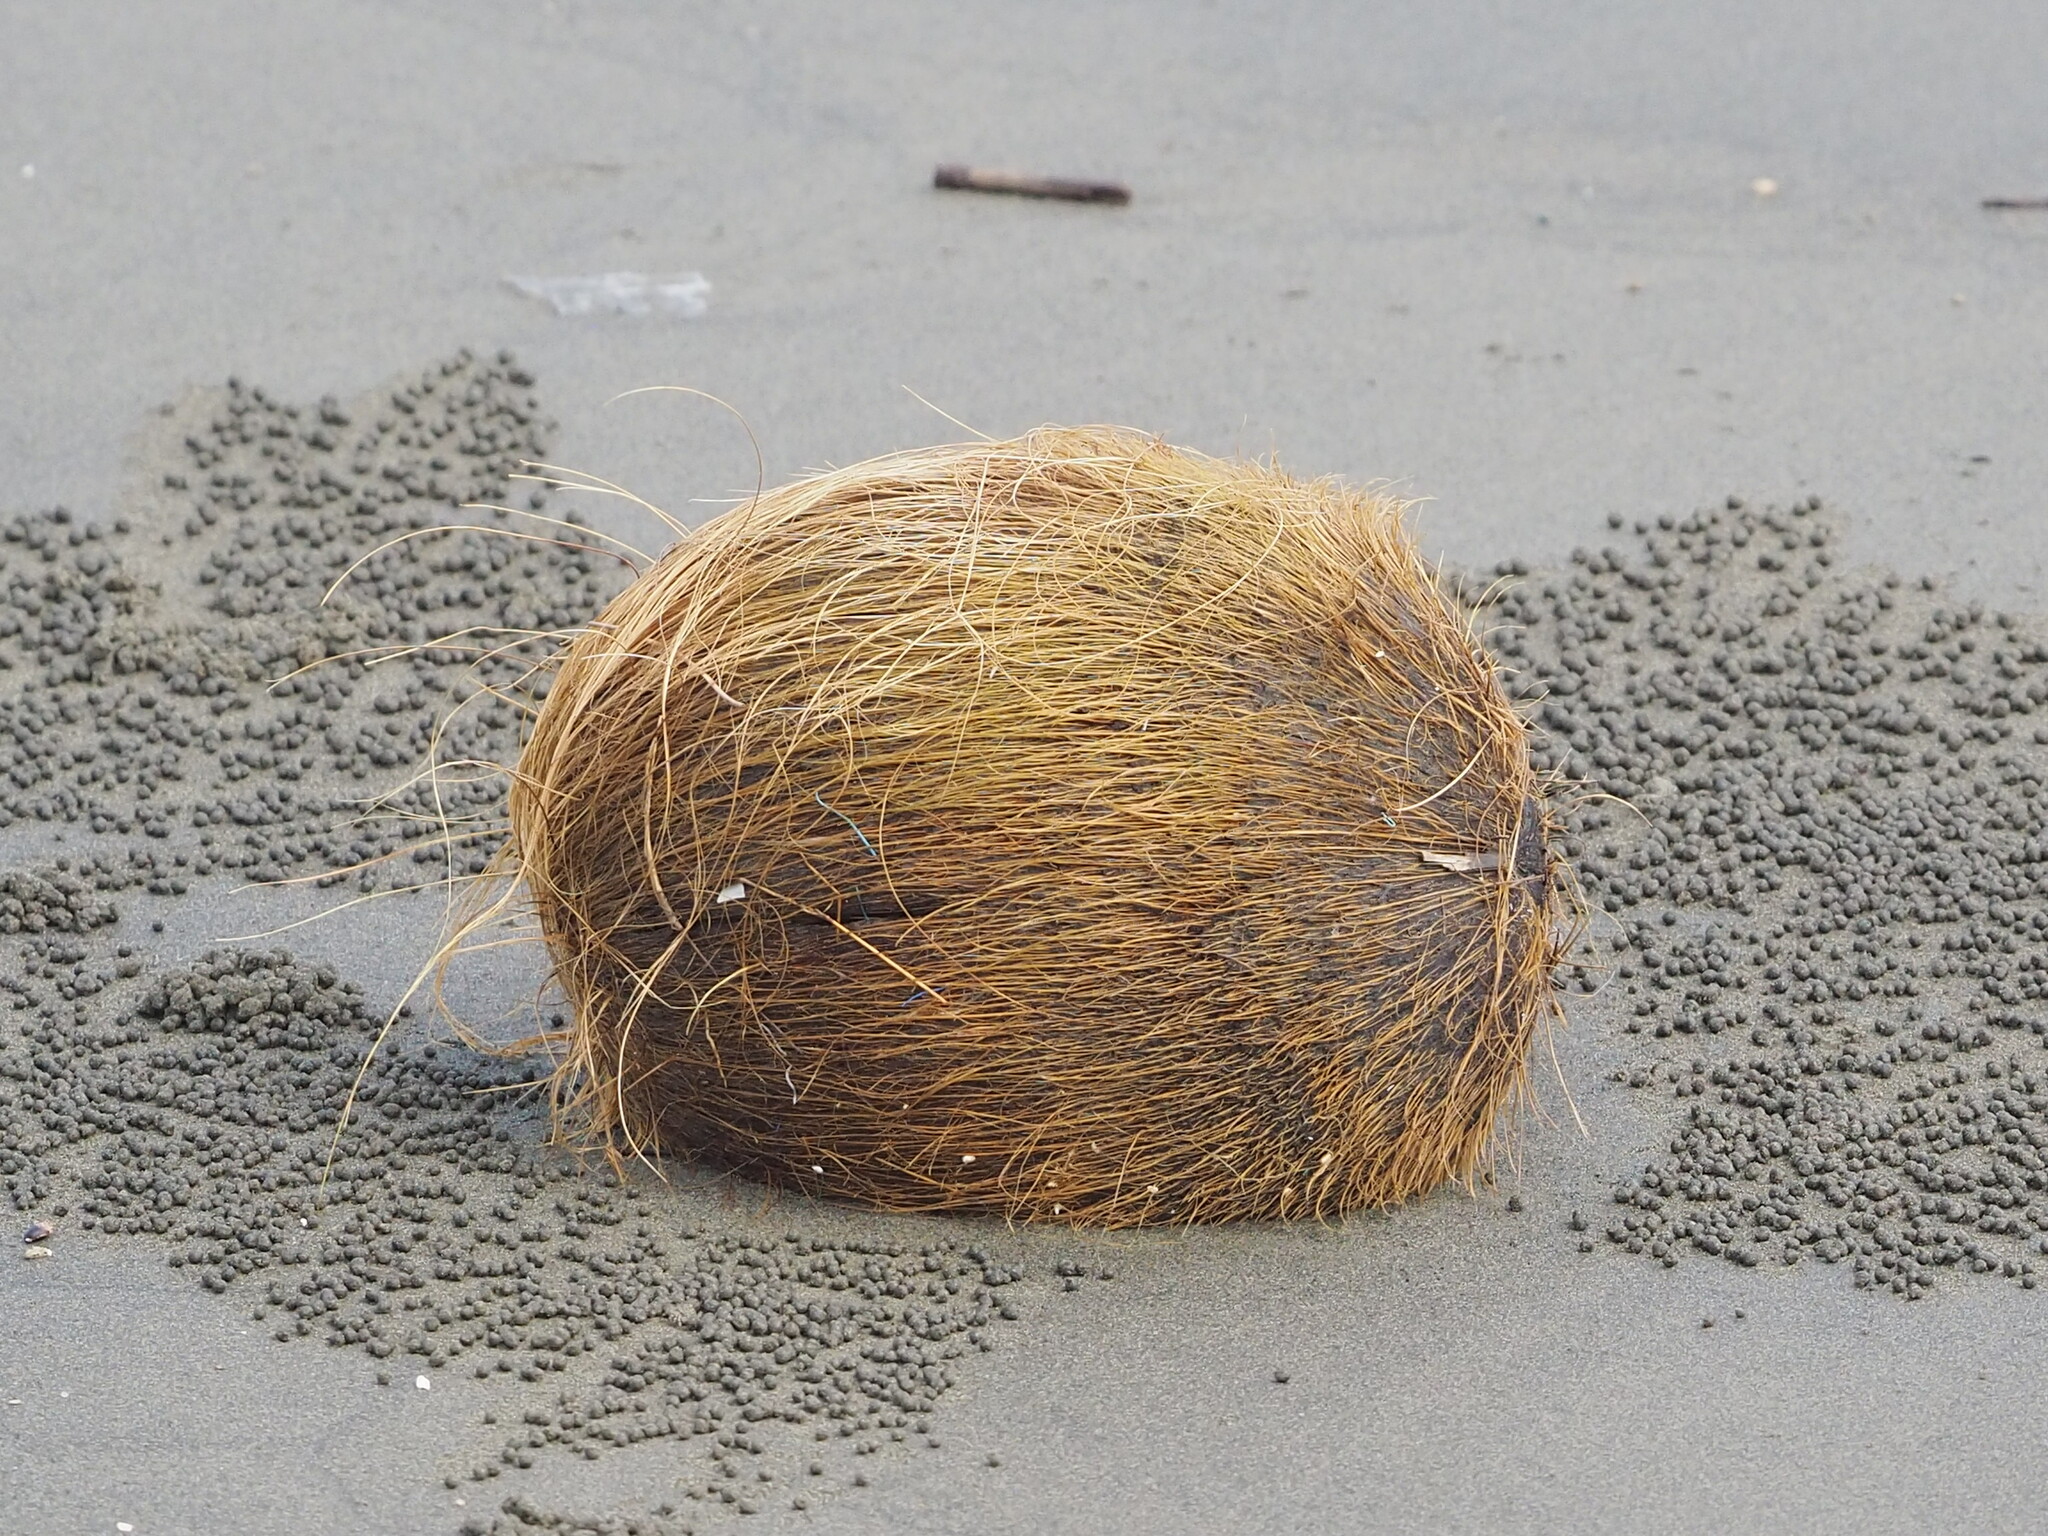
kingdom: Plantae
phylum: Tracheophyta
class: Liliopsida
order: Arecales
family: Arecaceae
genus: Cocos
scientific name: Cocos nucifera
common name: Coconut palm
